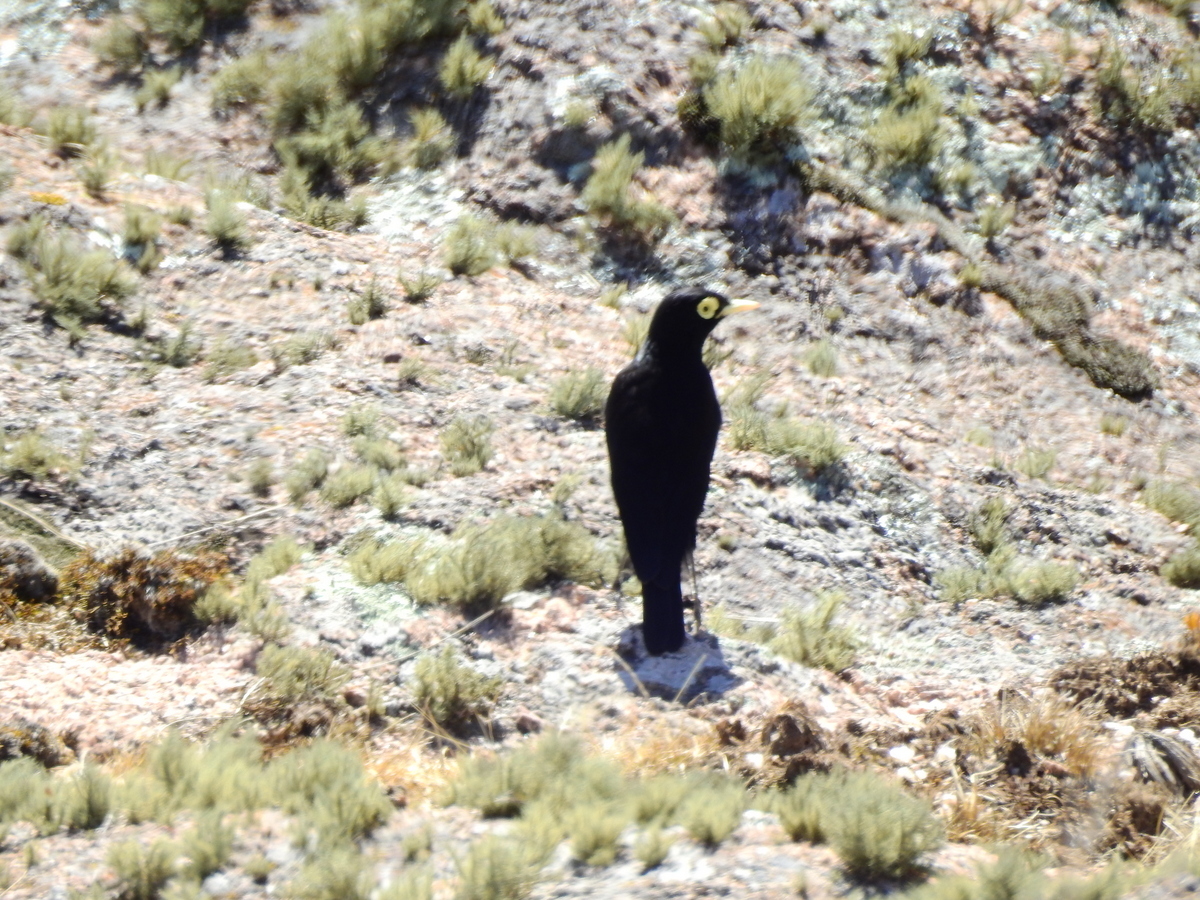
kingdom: Animalia
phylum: Chordata
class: Aves
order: Passeriformes
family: Tyrannidae
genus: Hymenops
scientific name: Hymenops perspicillatus
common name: Spectacled tyrant
